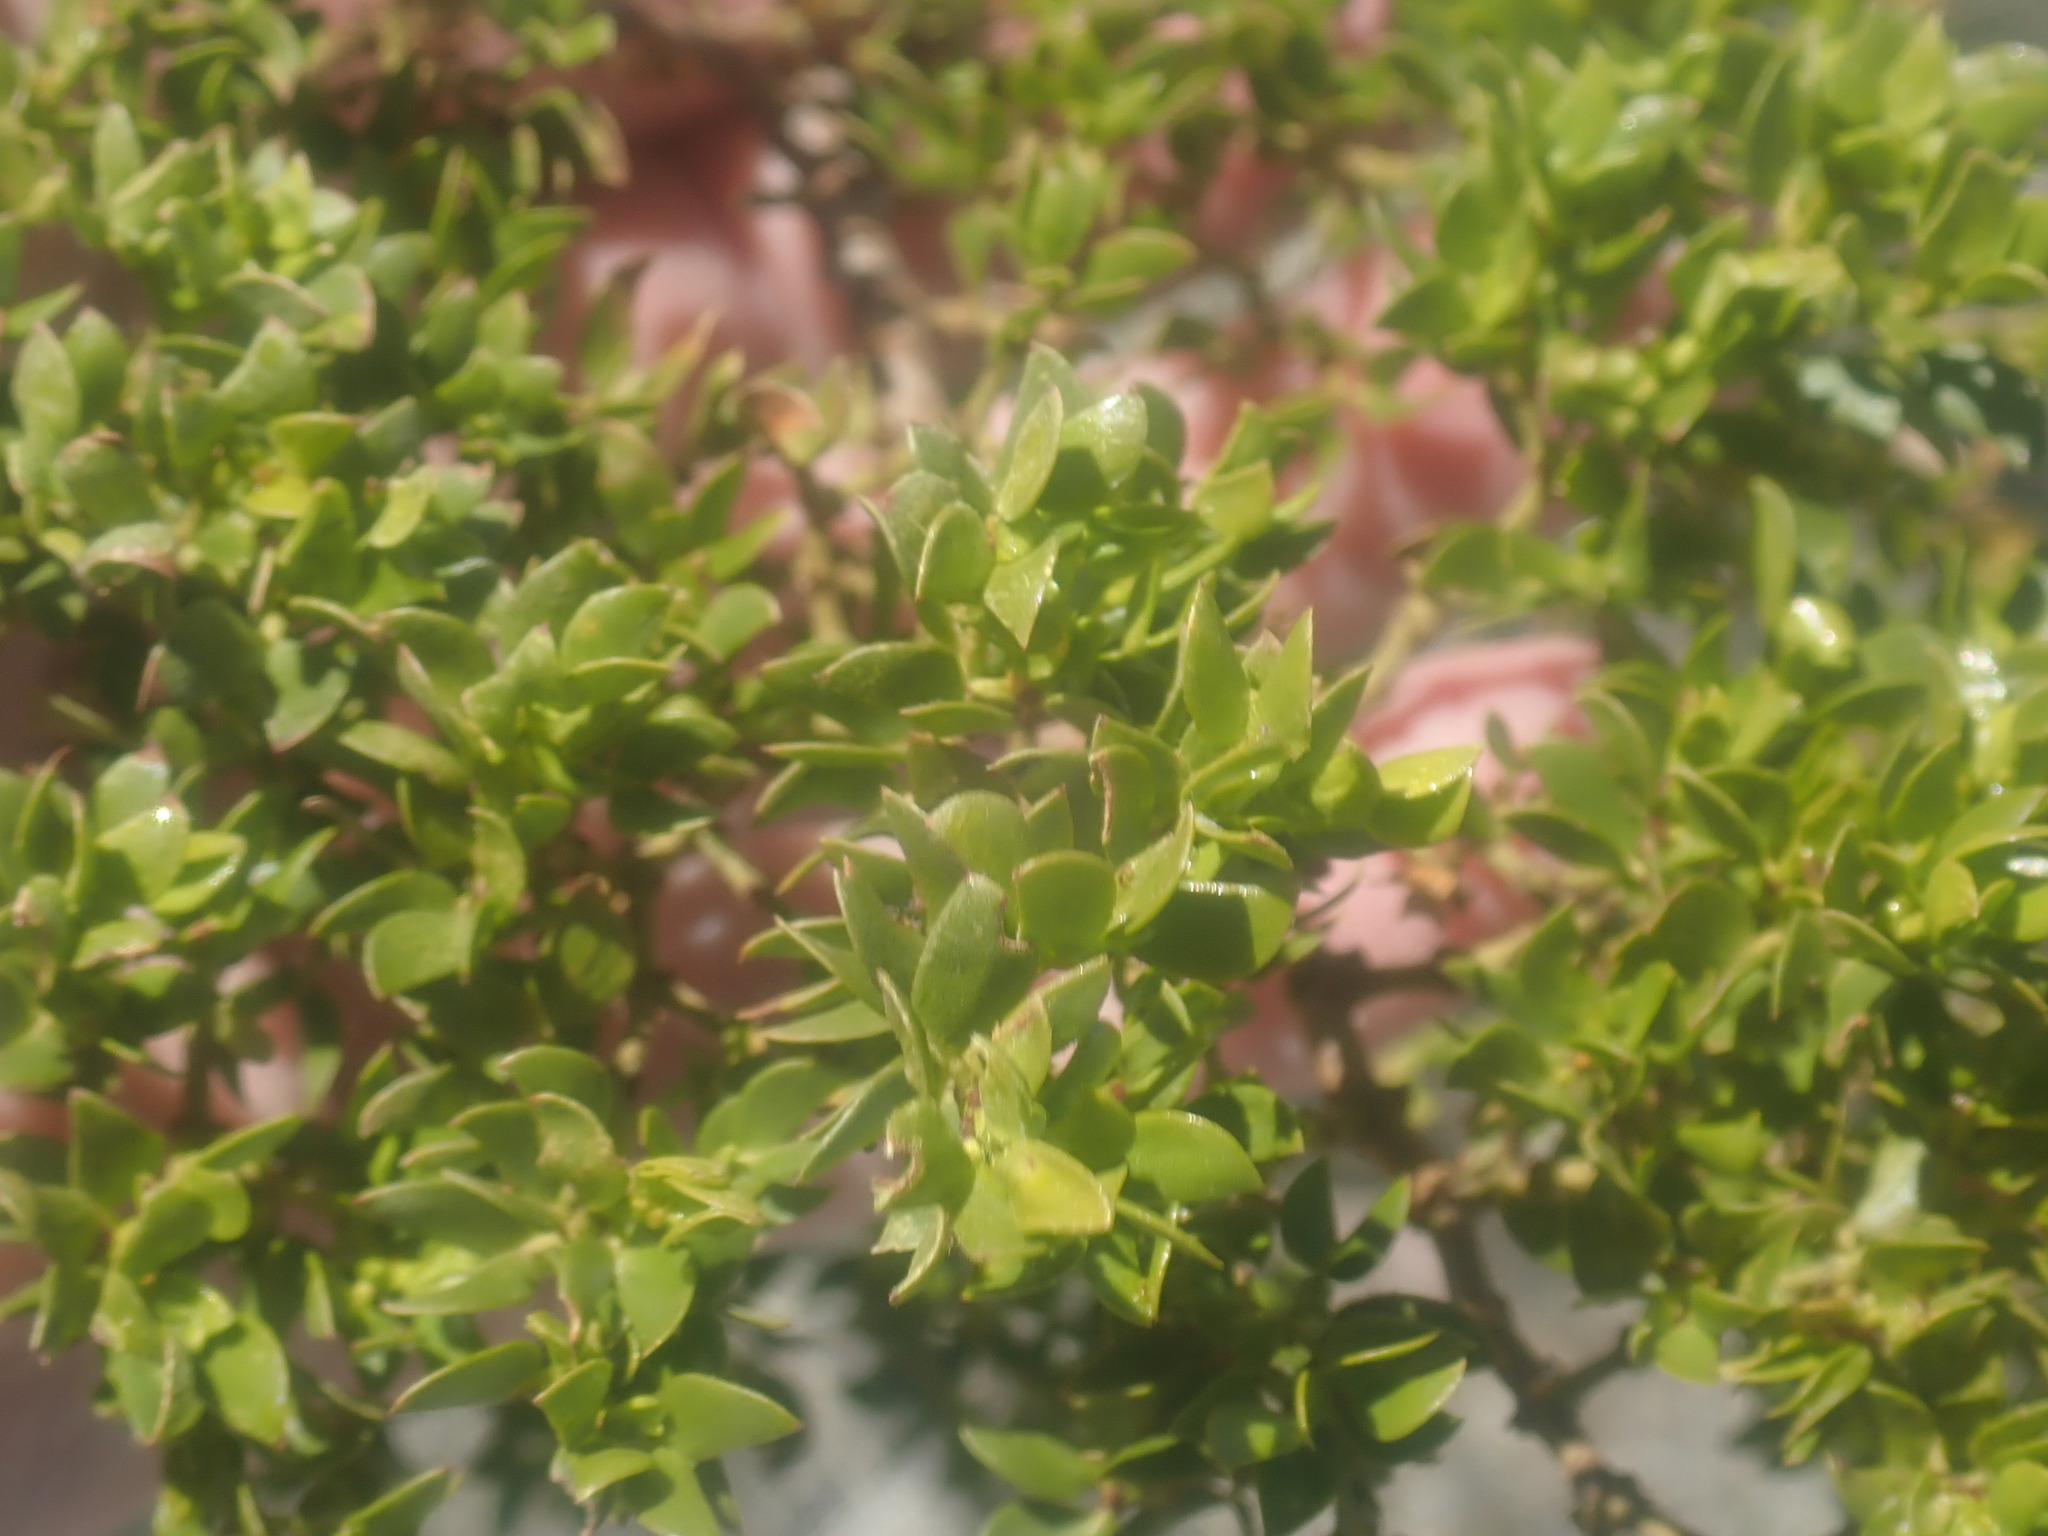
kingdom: Plantae
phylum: Tracheophyta
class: Magnoliopsida
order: Zygophyllales
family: Zygophyllaceae
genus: Larrea
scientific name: Larrea tridentata
